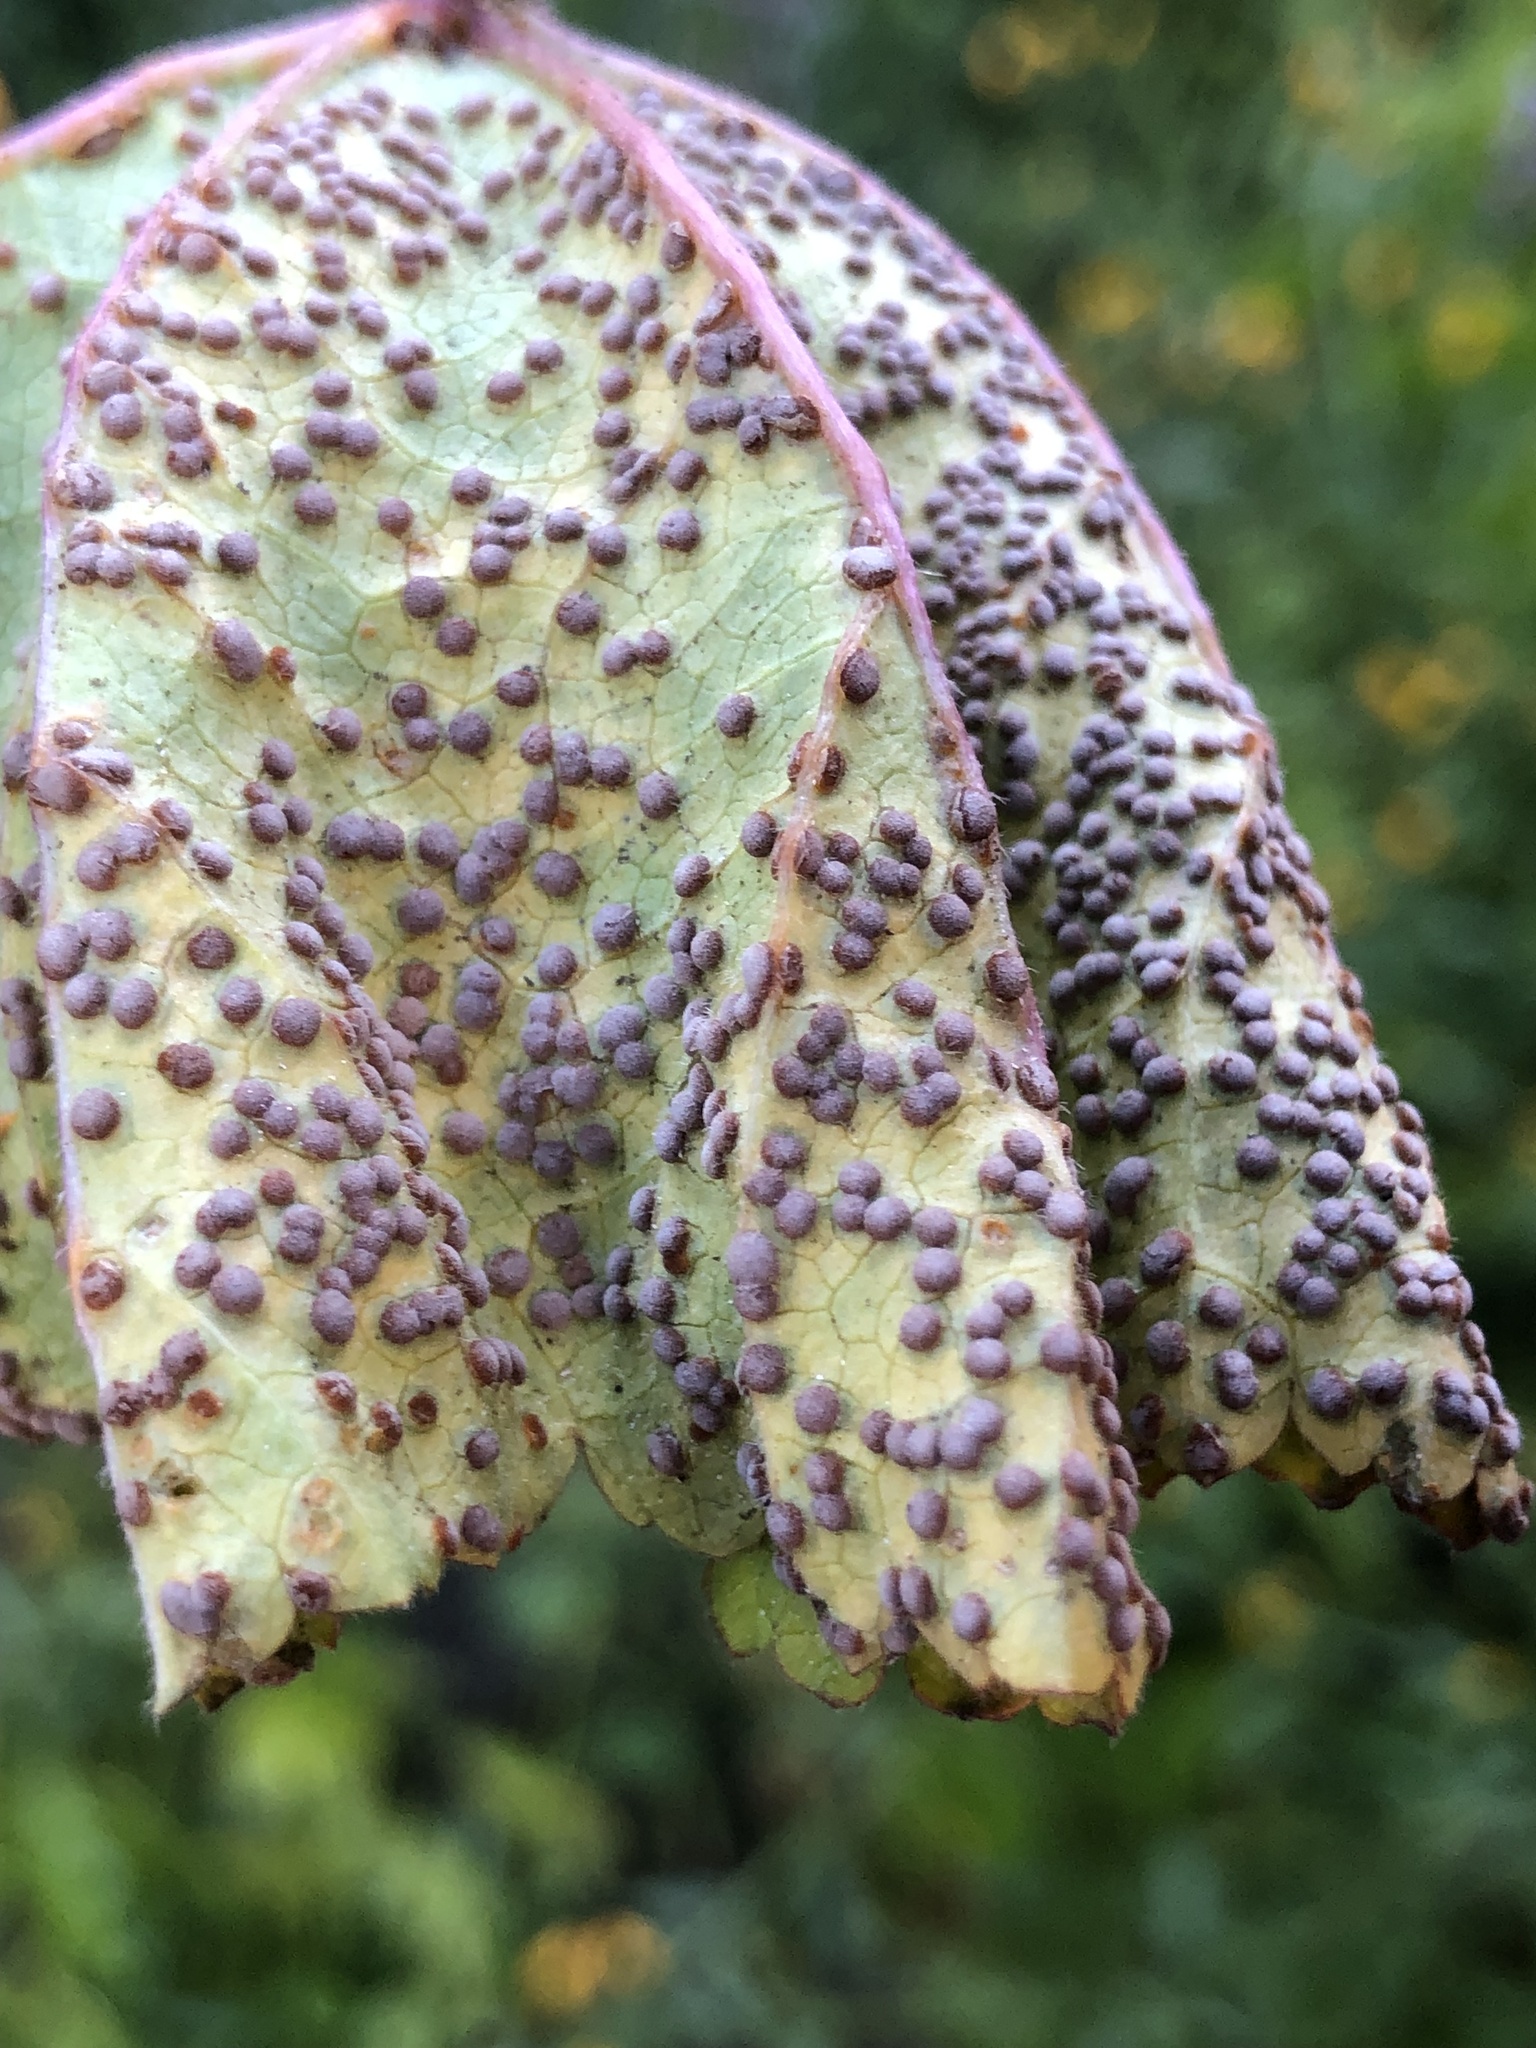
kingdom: Fungi
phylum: Basidiomycota
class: Pucciniomycetes
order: Pucciniales
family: Pucciniaceae
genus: Puccinia
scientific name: Puccinia malvacearum
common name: Hollyhock rust
